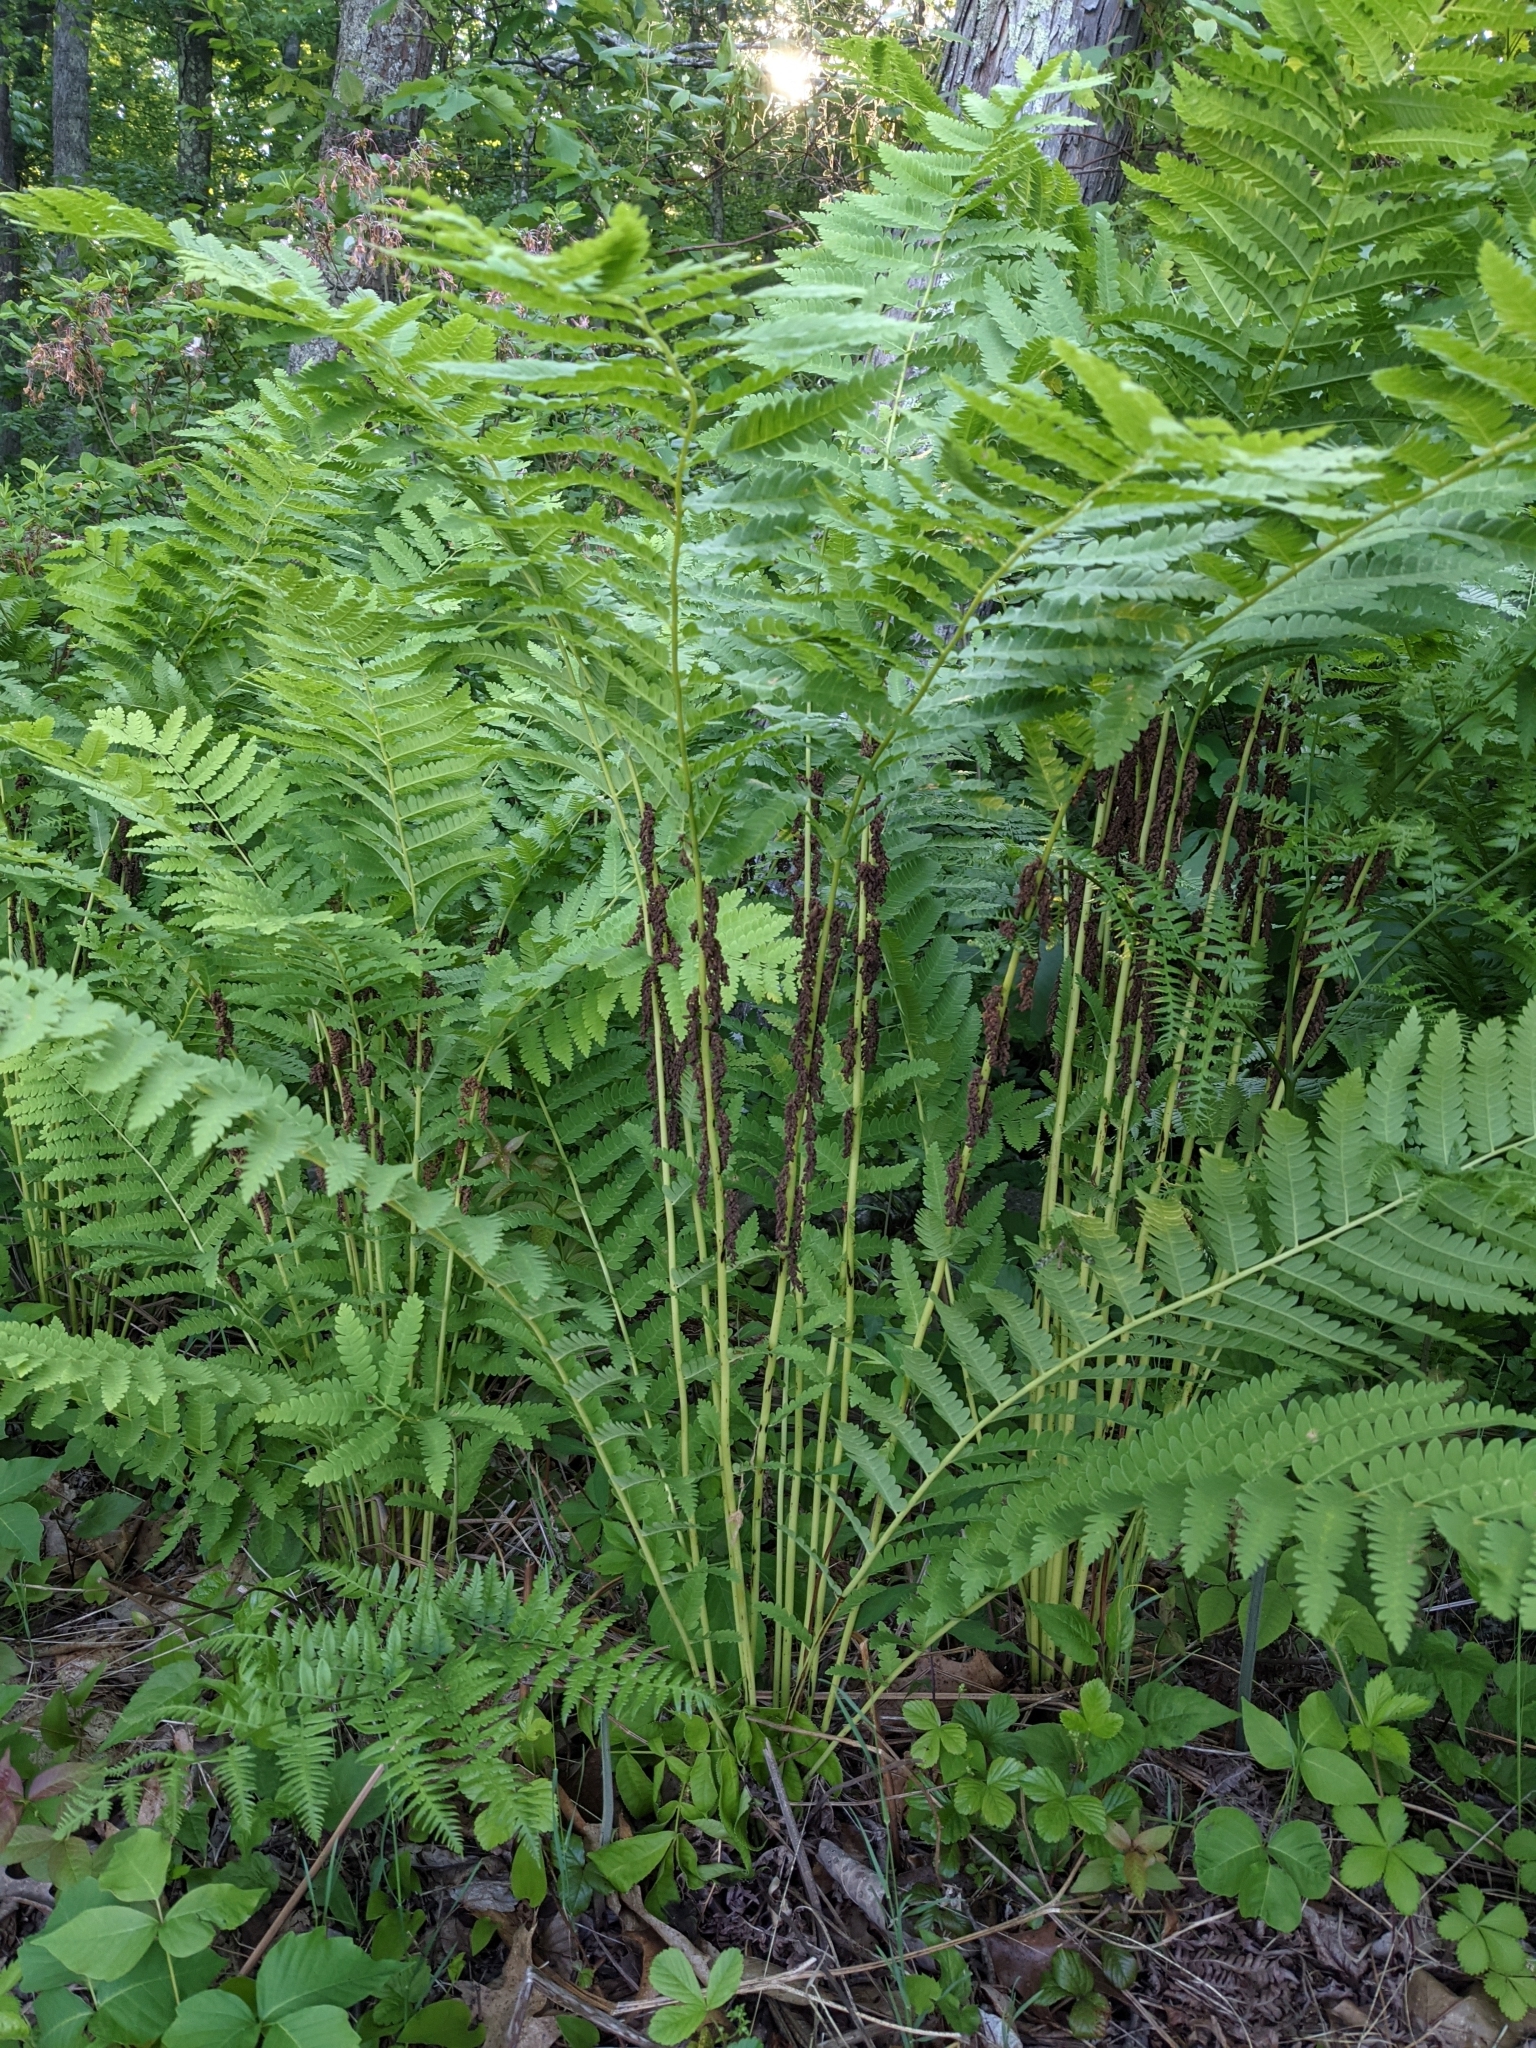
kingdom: Plantae
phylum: Tracheophyta
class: Polypodiopsida
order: Osmundales
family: Osmundaceae
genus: Claytosmunda
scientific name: Claytosmunda claytoniana
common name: Clayton's fern
